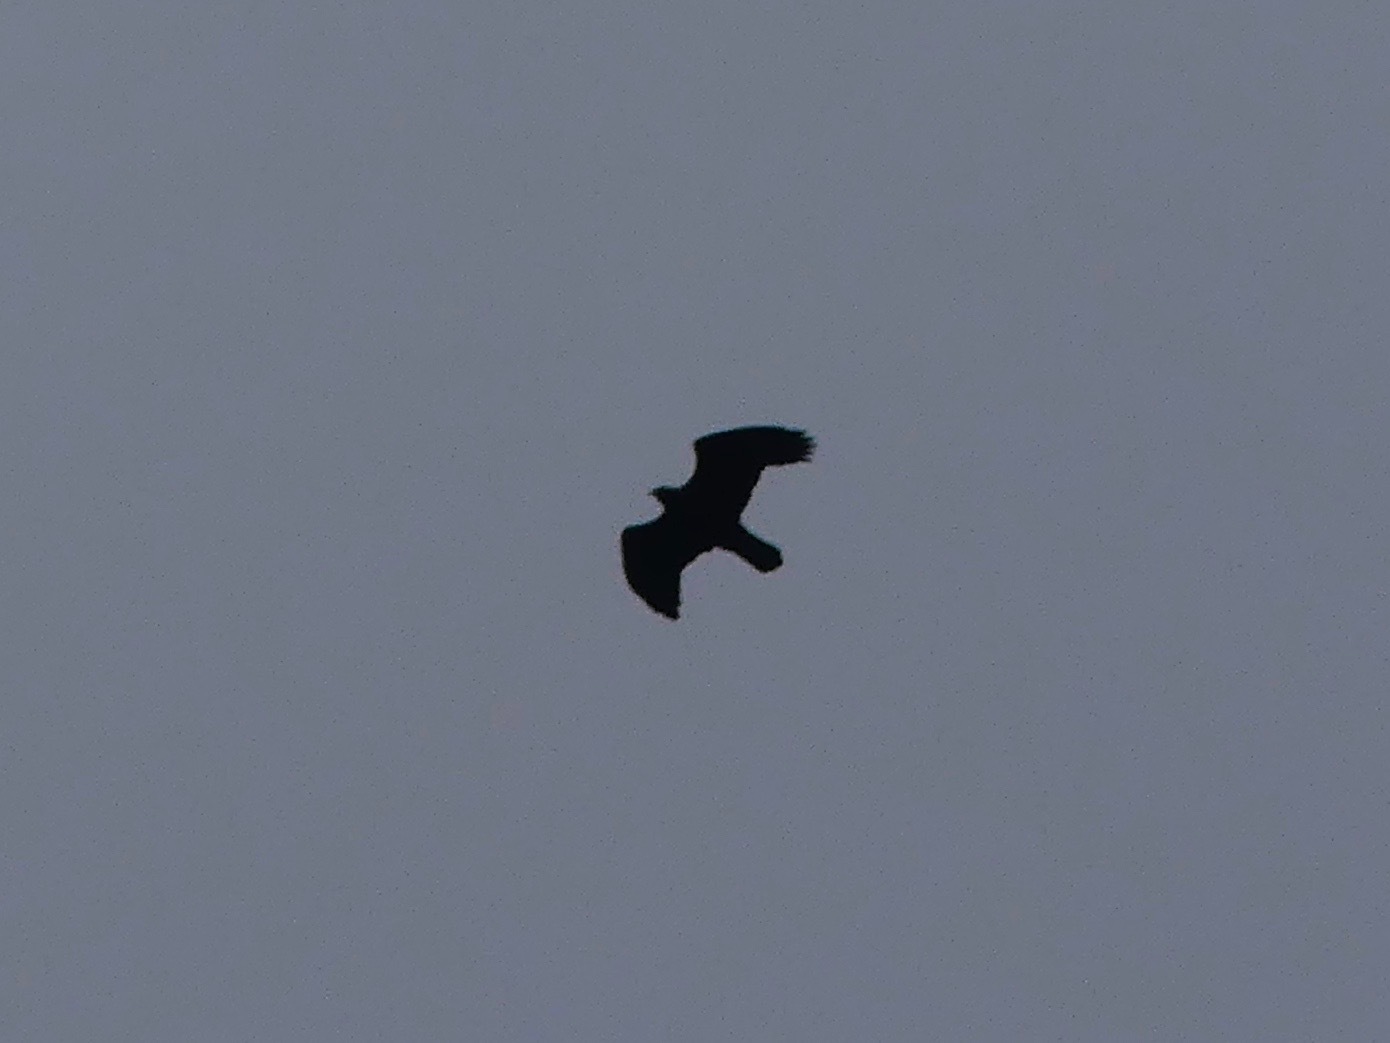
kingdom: Animalia
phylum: Chordata
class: Aves
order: Accipitriformes
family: Accipitridae
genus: Aquila
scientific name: Aquila chrysaetos
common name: Golden eagle
